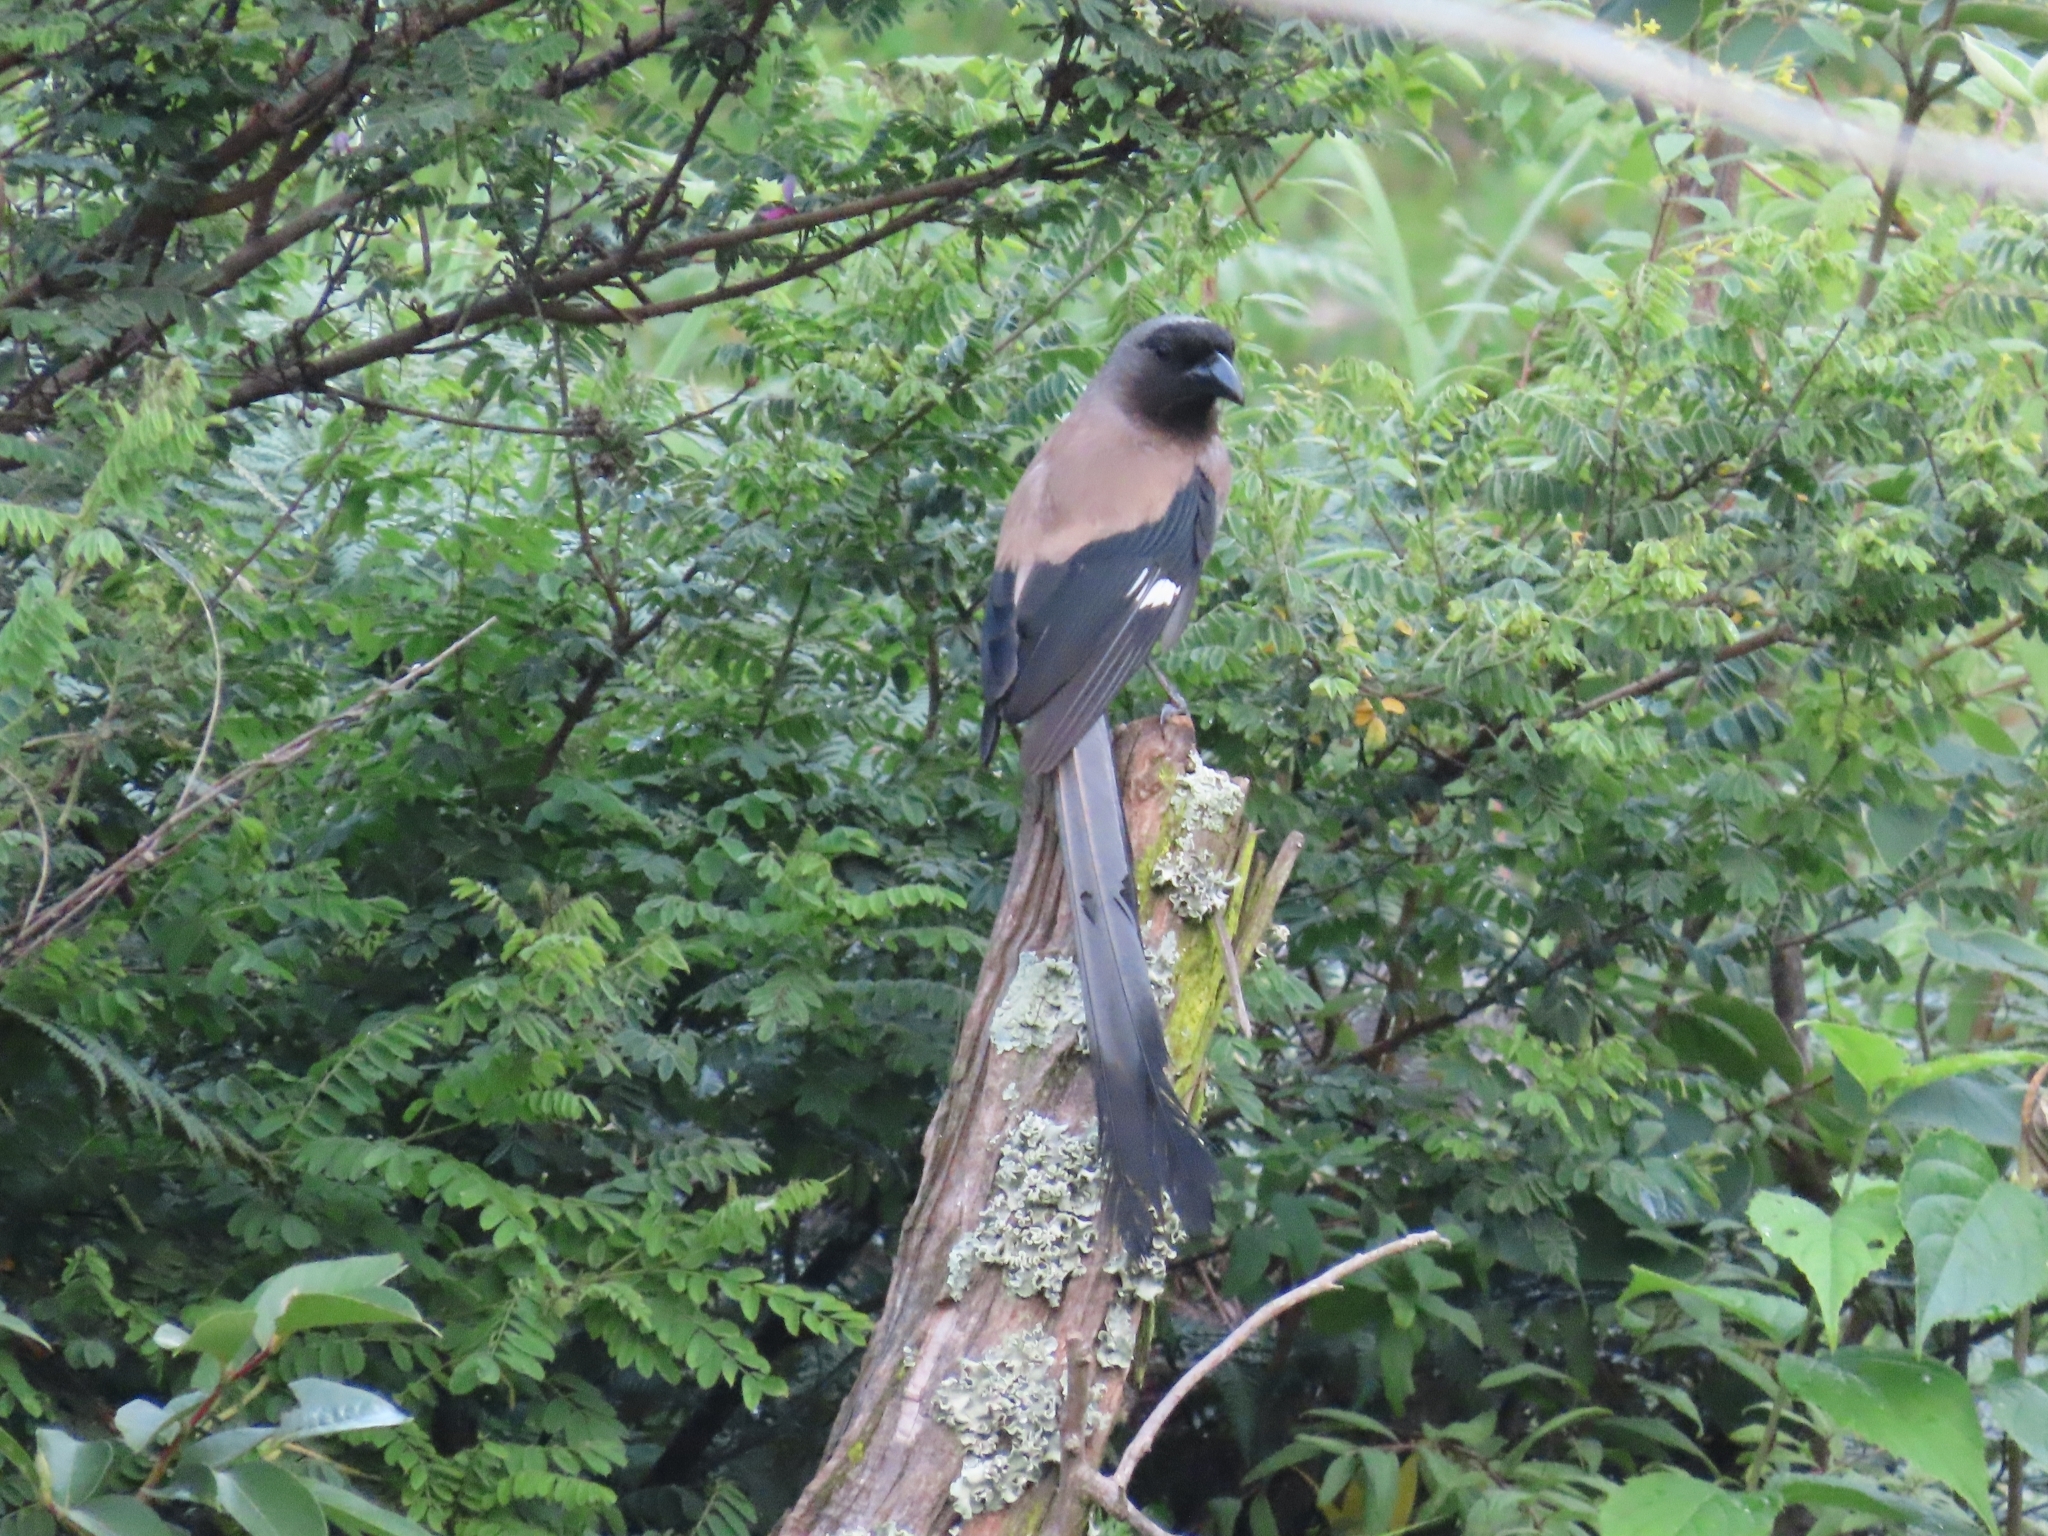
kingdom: Animalia
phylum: Chordata
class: Aves
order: Passeriformes
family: Corvidae
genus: Dendrocitta
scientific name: Dendrocitta formosae
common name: Grey treepie
